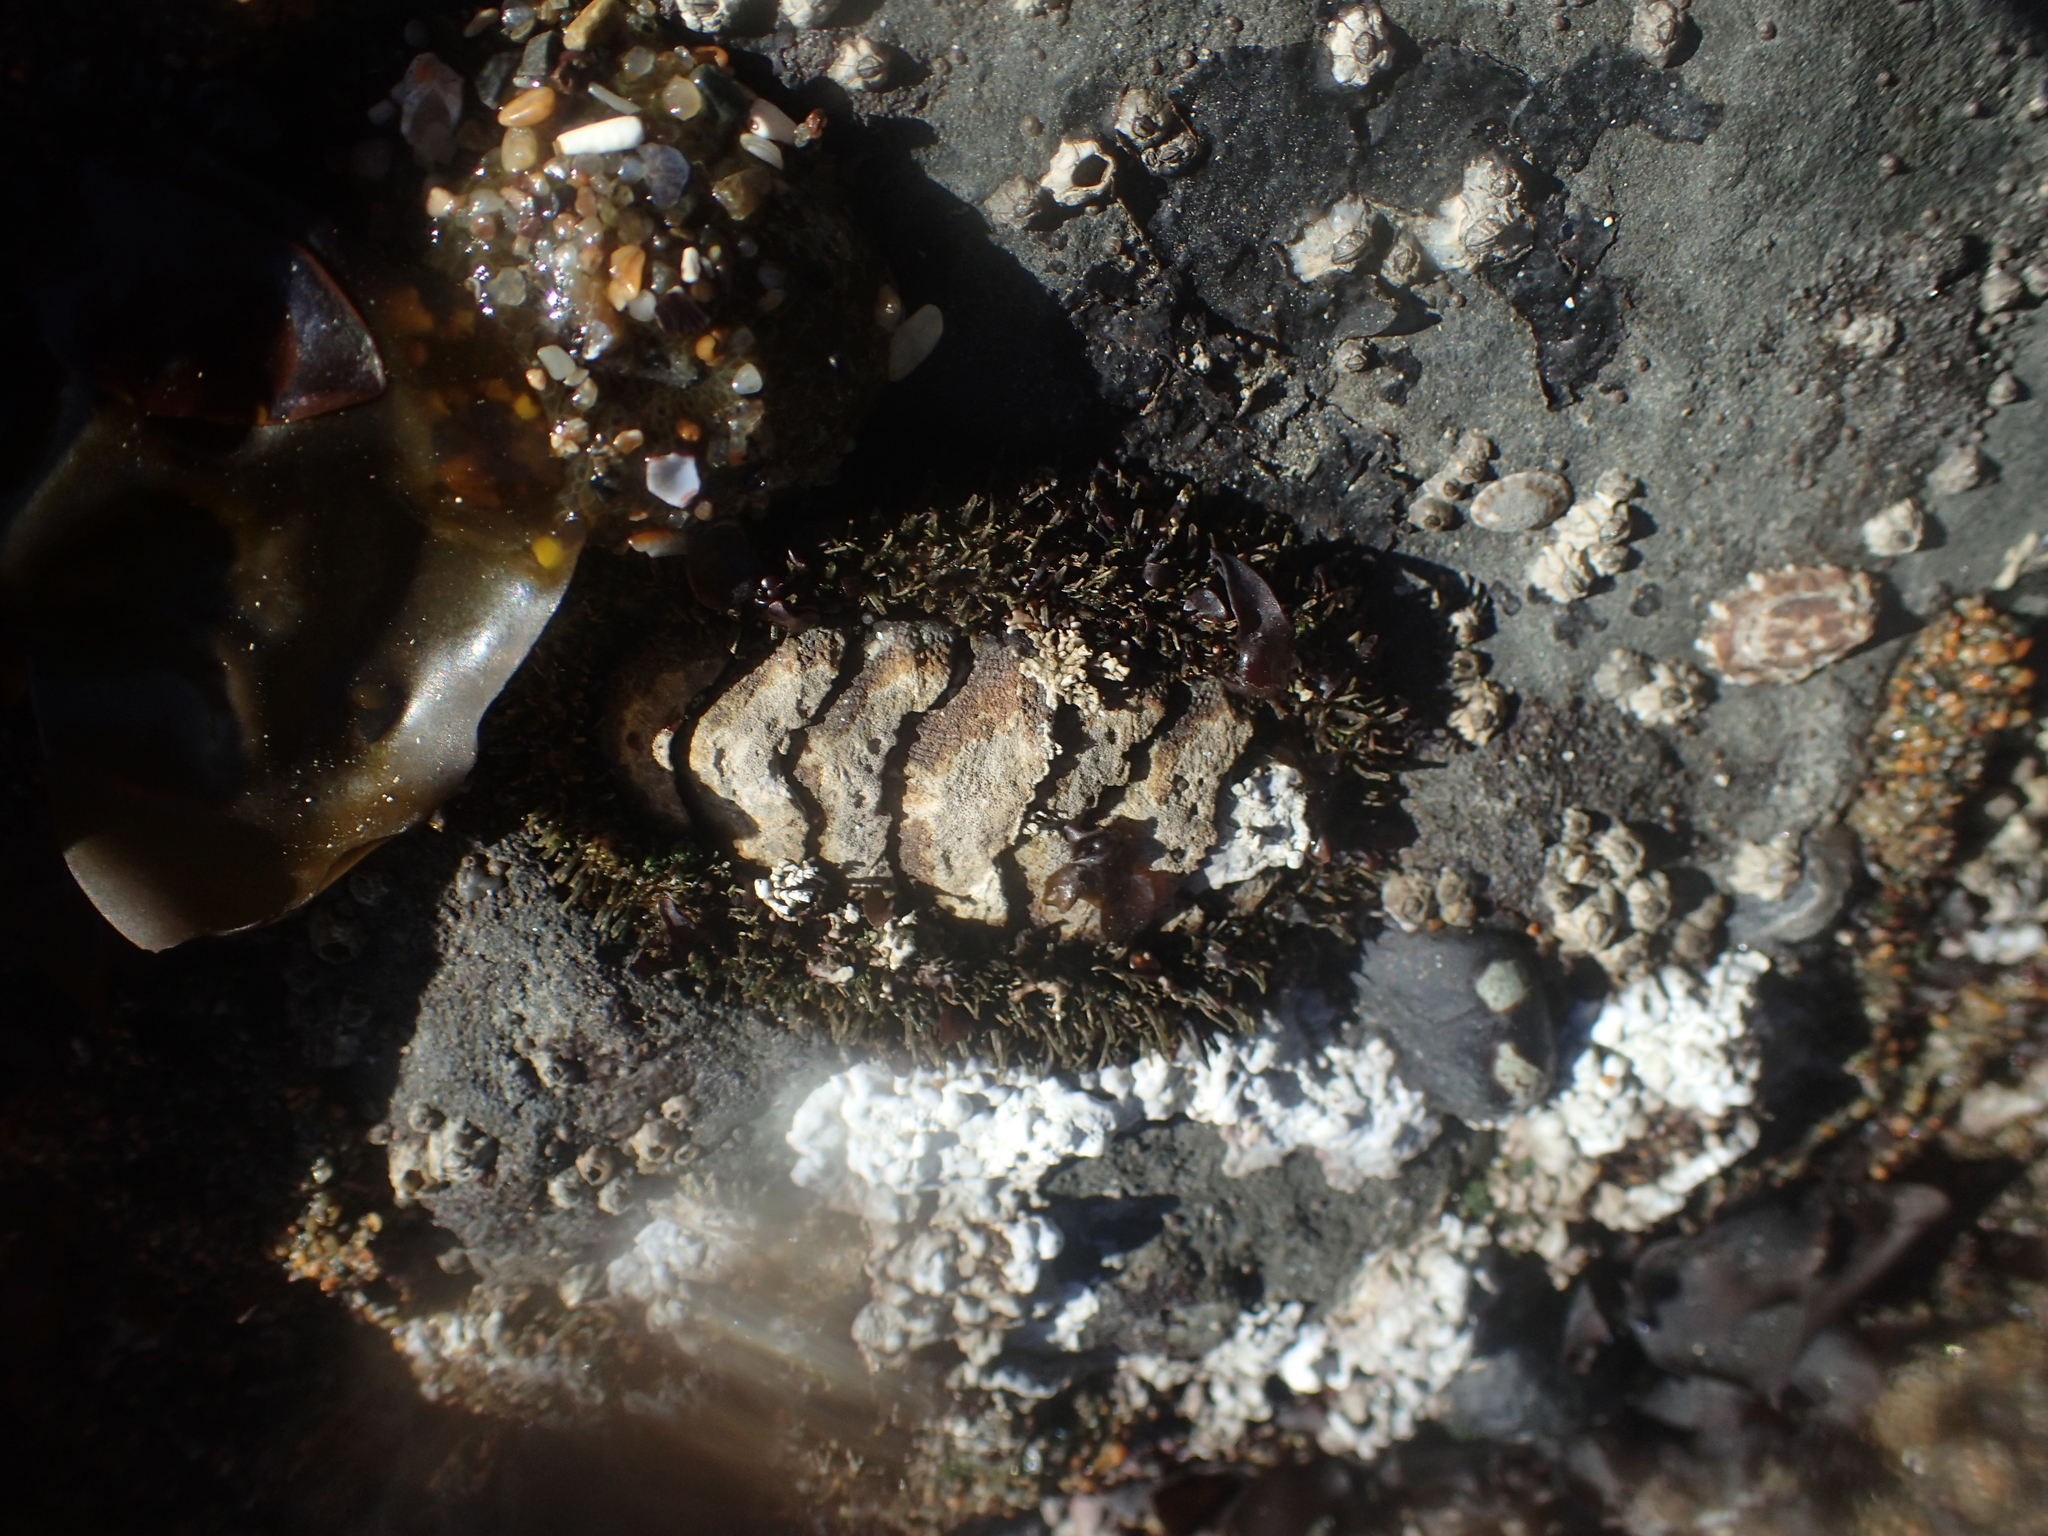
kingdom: Animalia
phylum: Mollusca
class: Polyplacophora
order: Chitonida
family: Mopaliidae
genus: Mopalia
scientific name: Mopalia muscosa
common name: Mossy chiton
